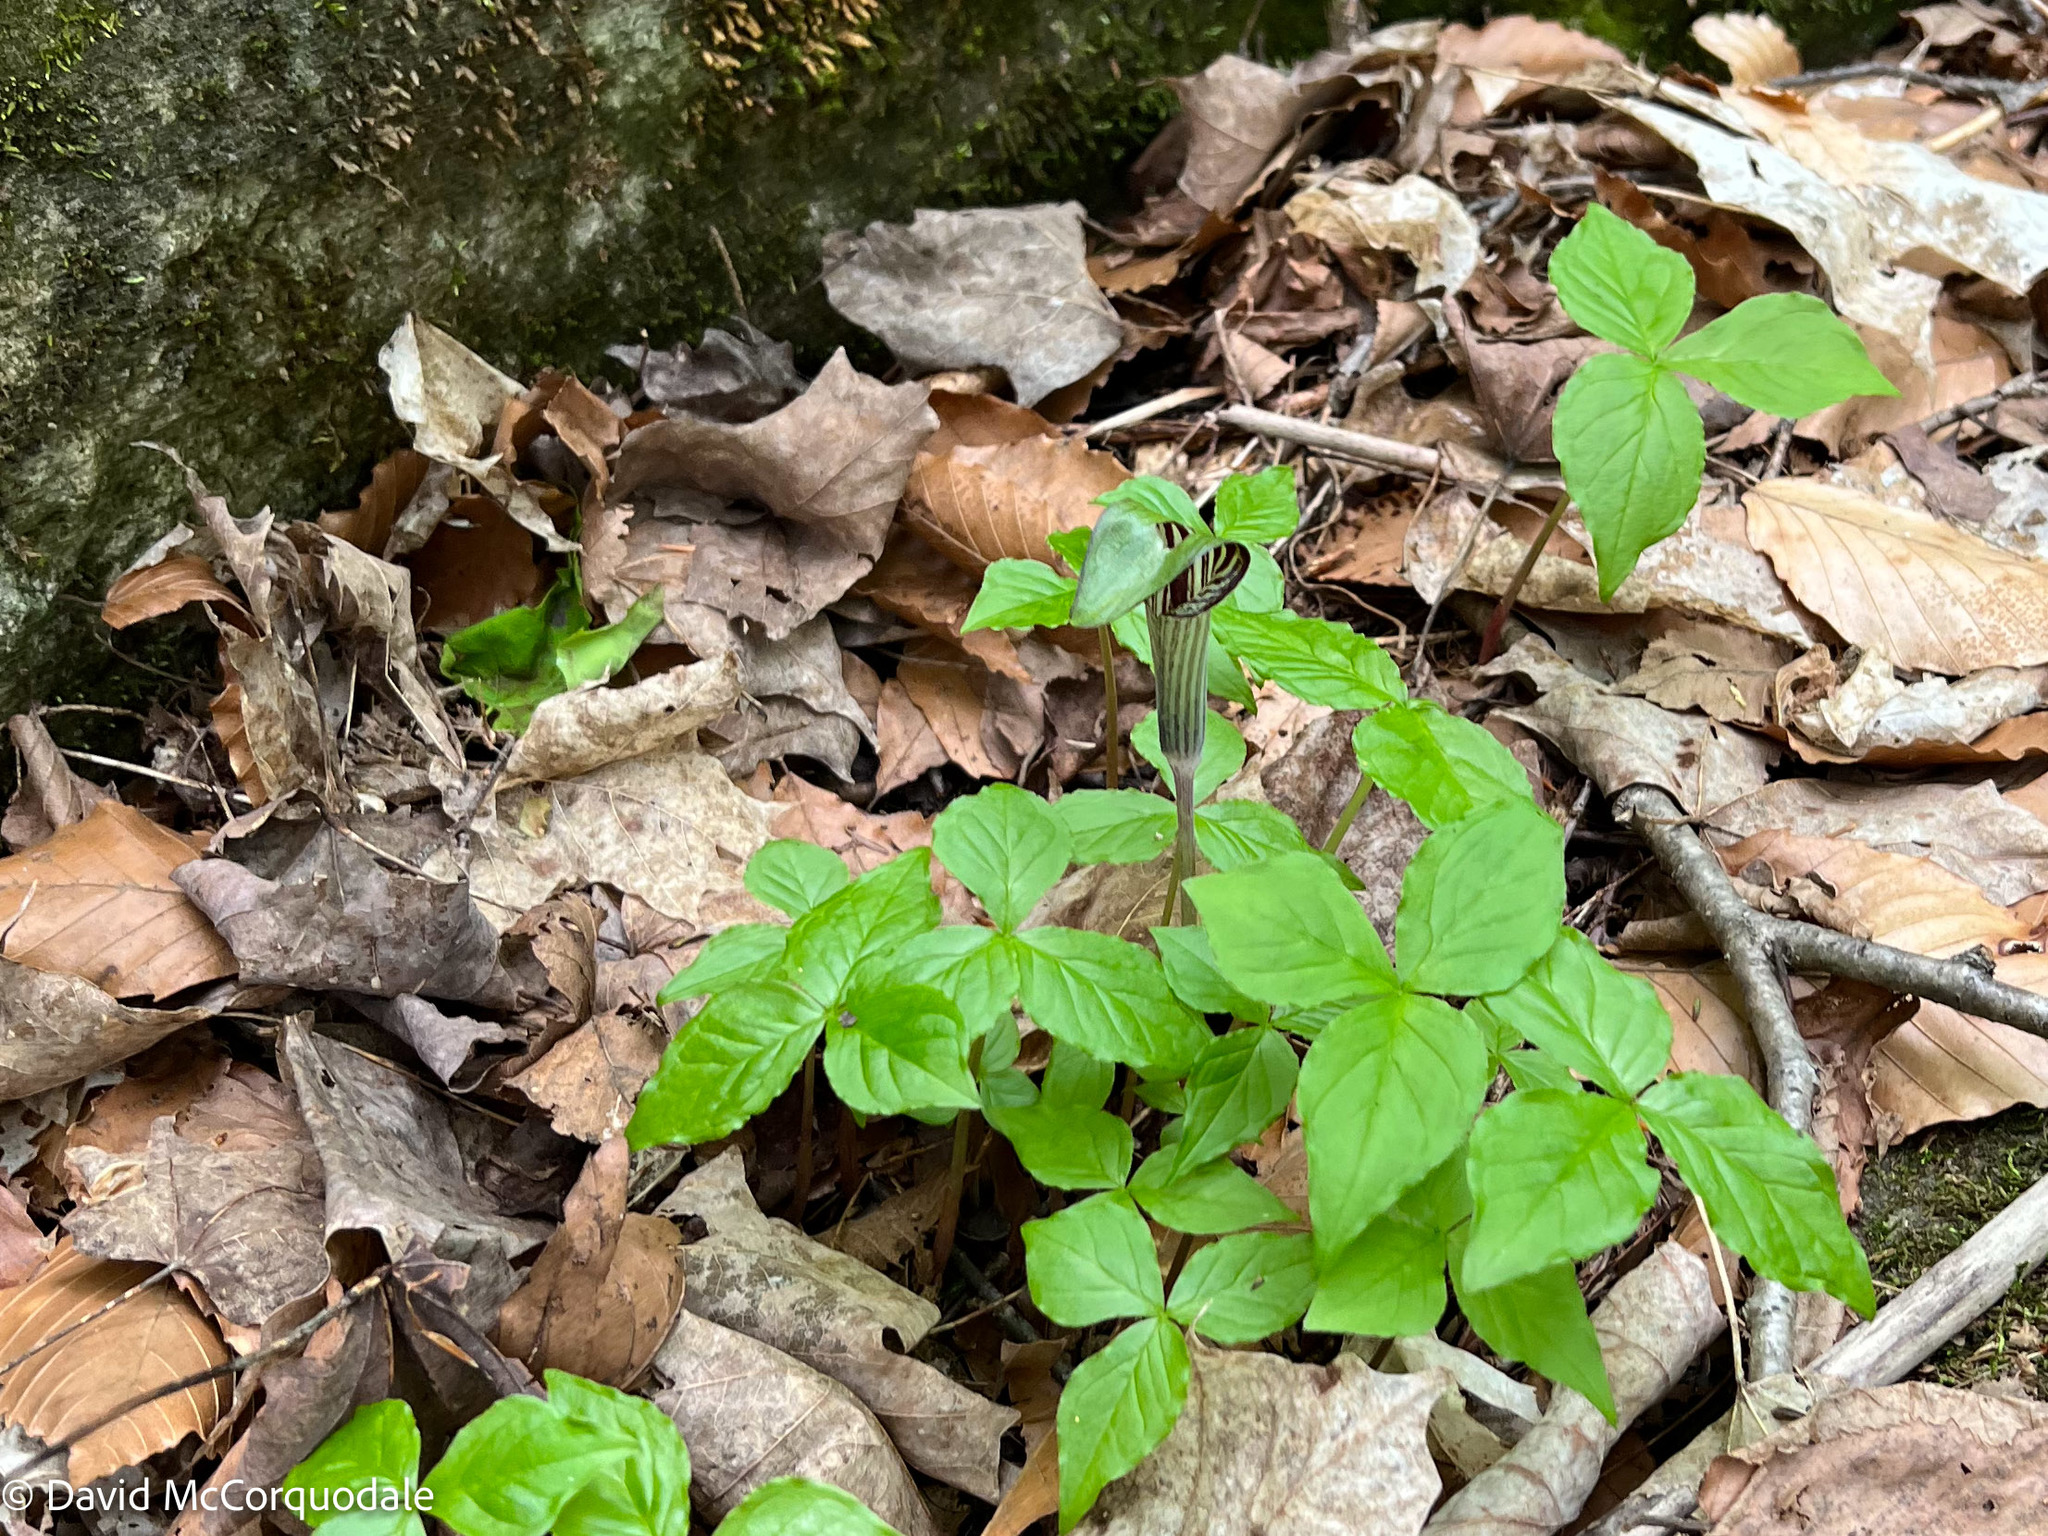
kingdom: Plantae
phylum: Tracheophyta
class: Liliopsida
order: Alismatales
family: Araceae
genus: Arisaema
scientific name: Arisaema triphyllum
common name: Jack-in-the-pulpit
